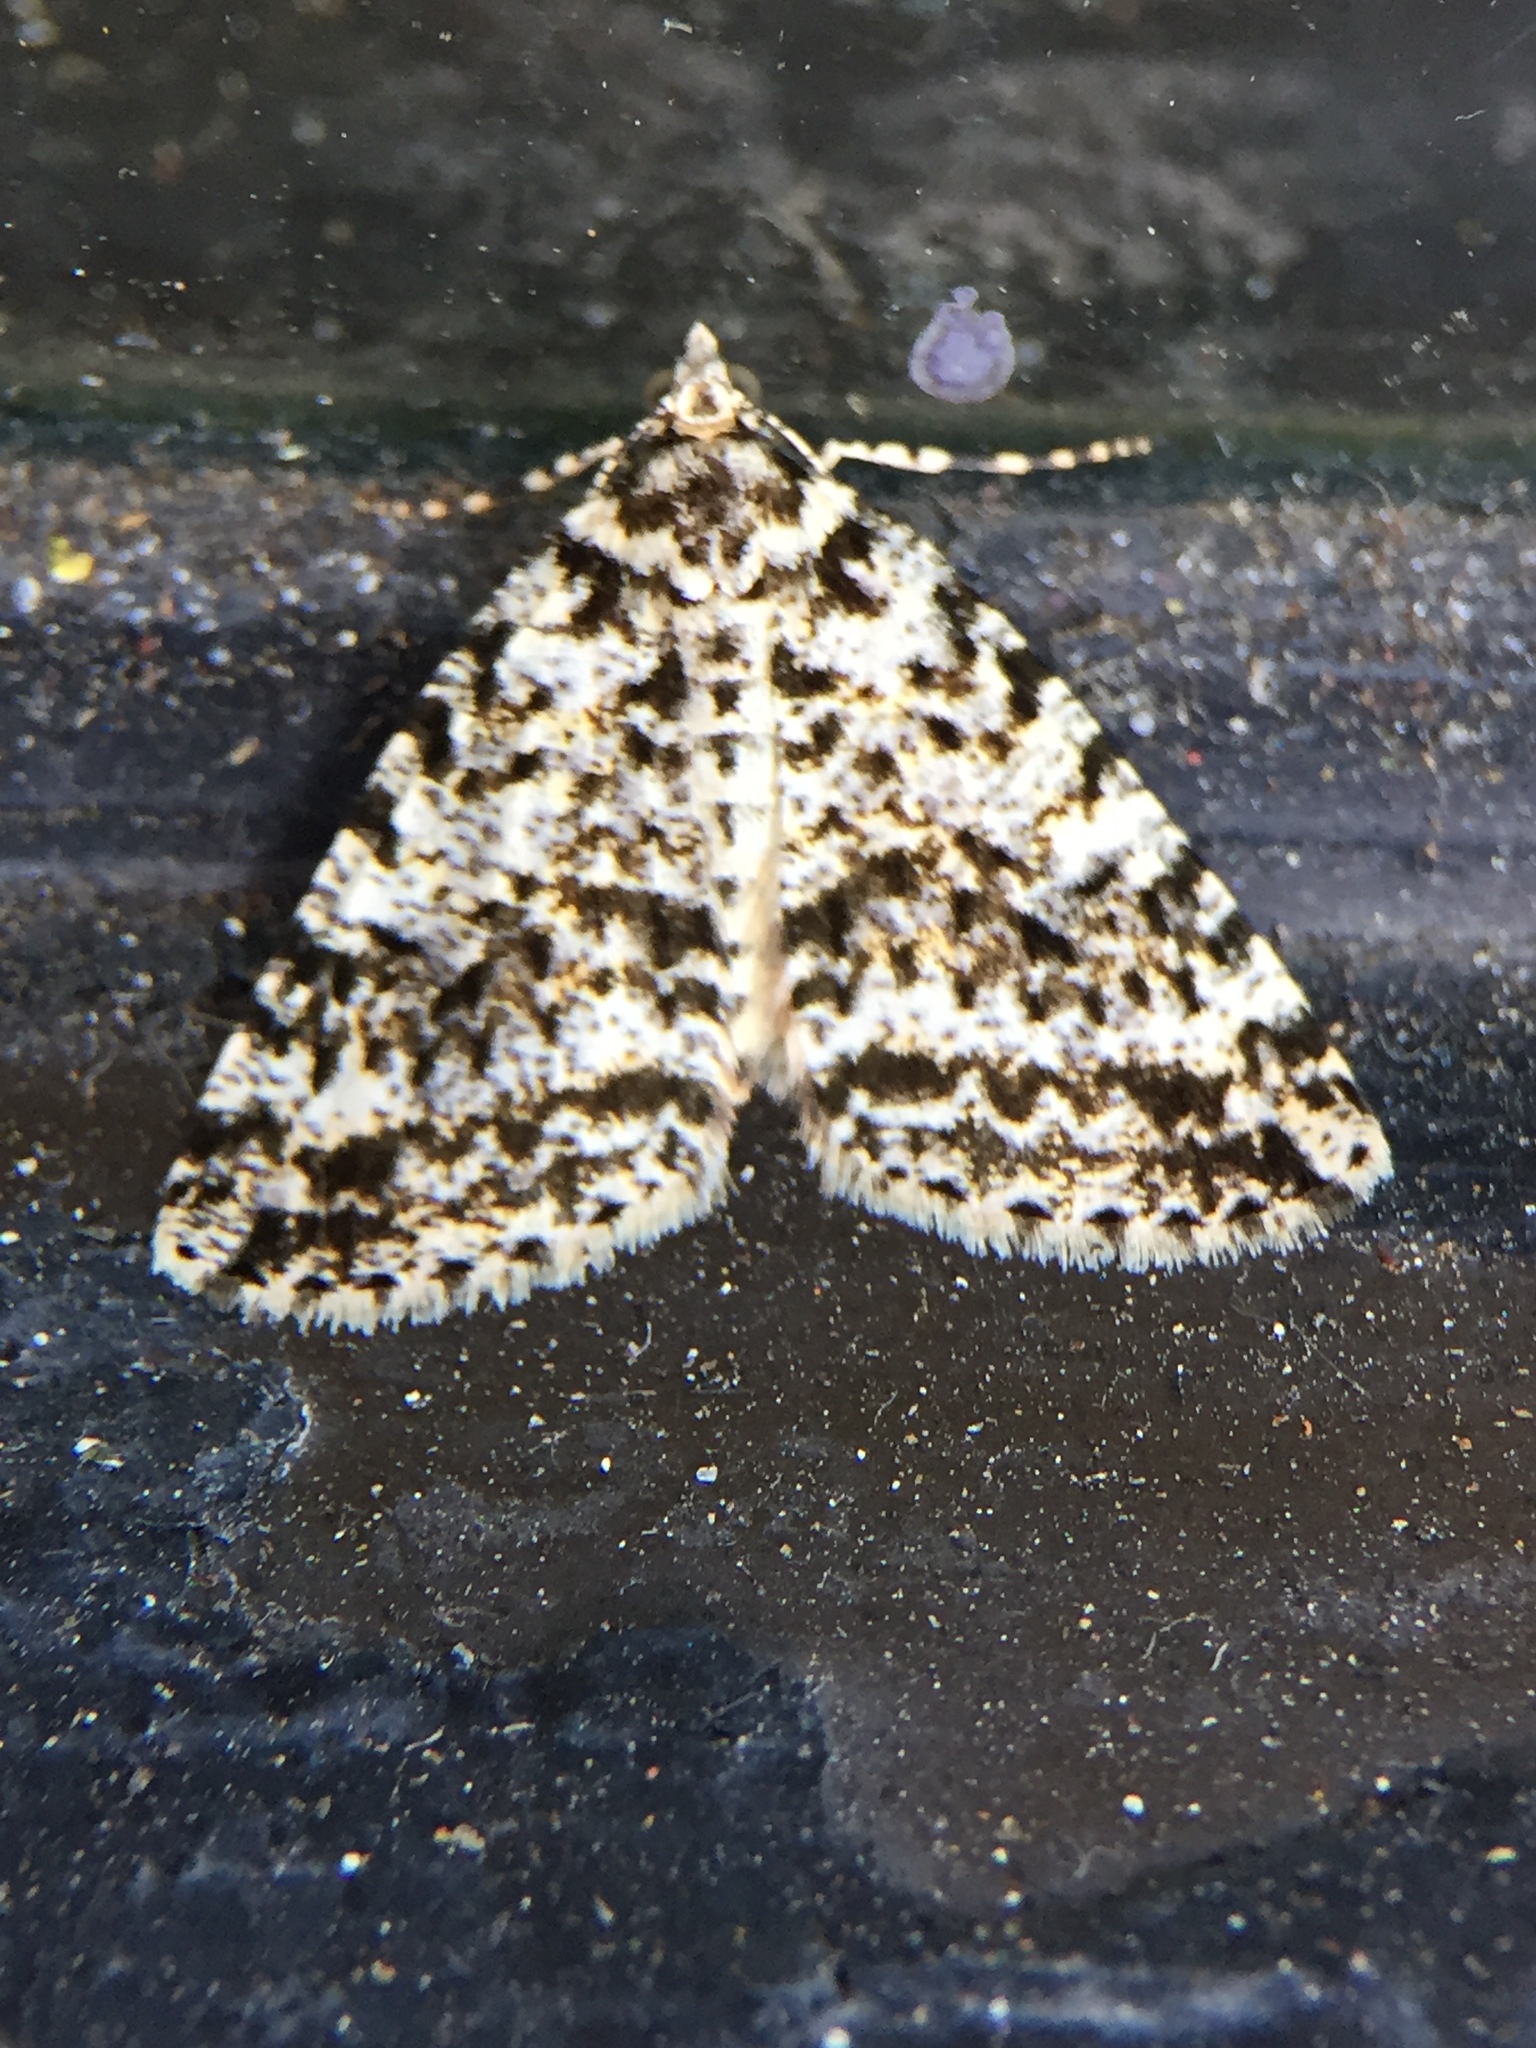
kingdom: Animalia
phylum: Arthropoda
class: Insecta
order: Lepidoptera
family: Geometridae
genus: Pseudocoremia
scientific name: Pseudocoremia monacha
